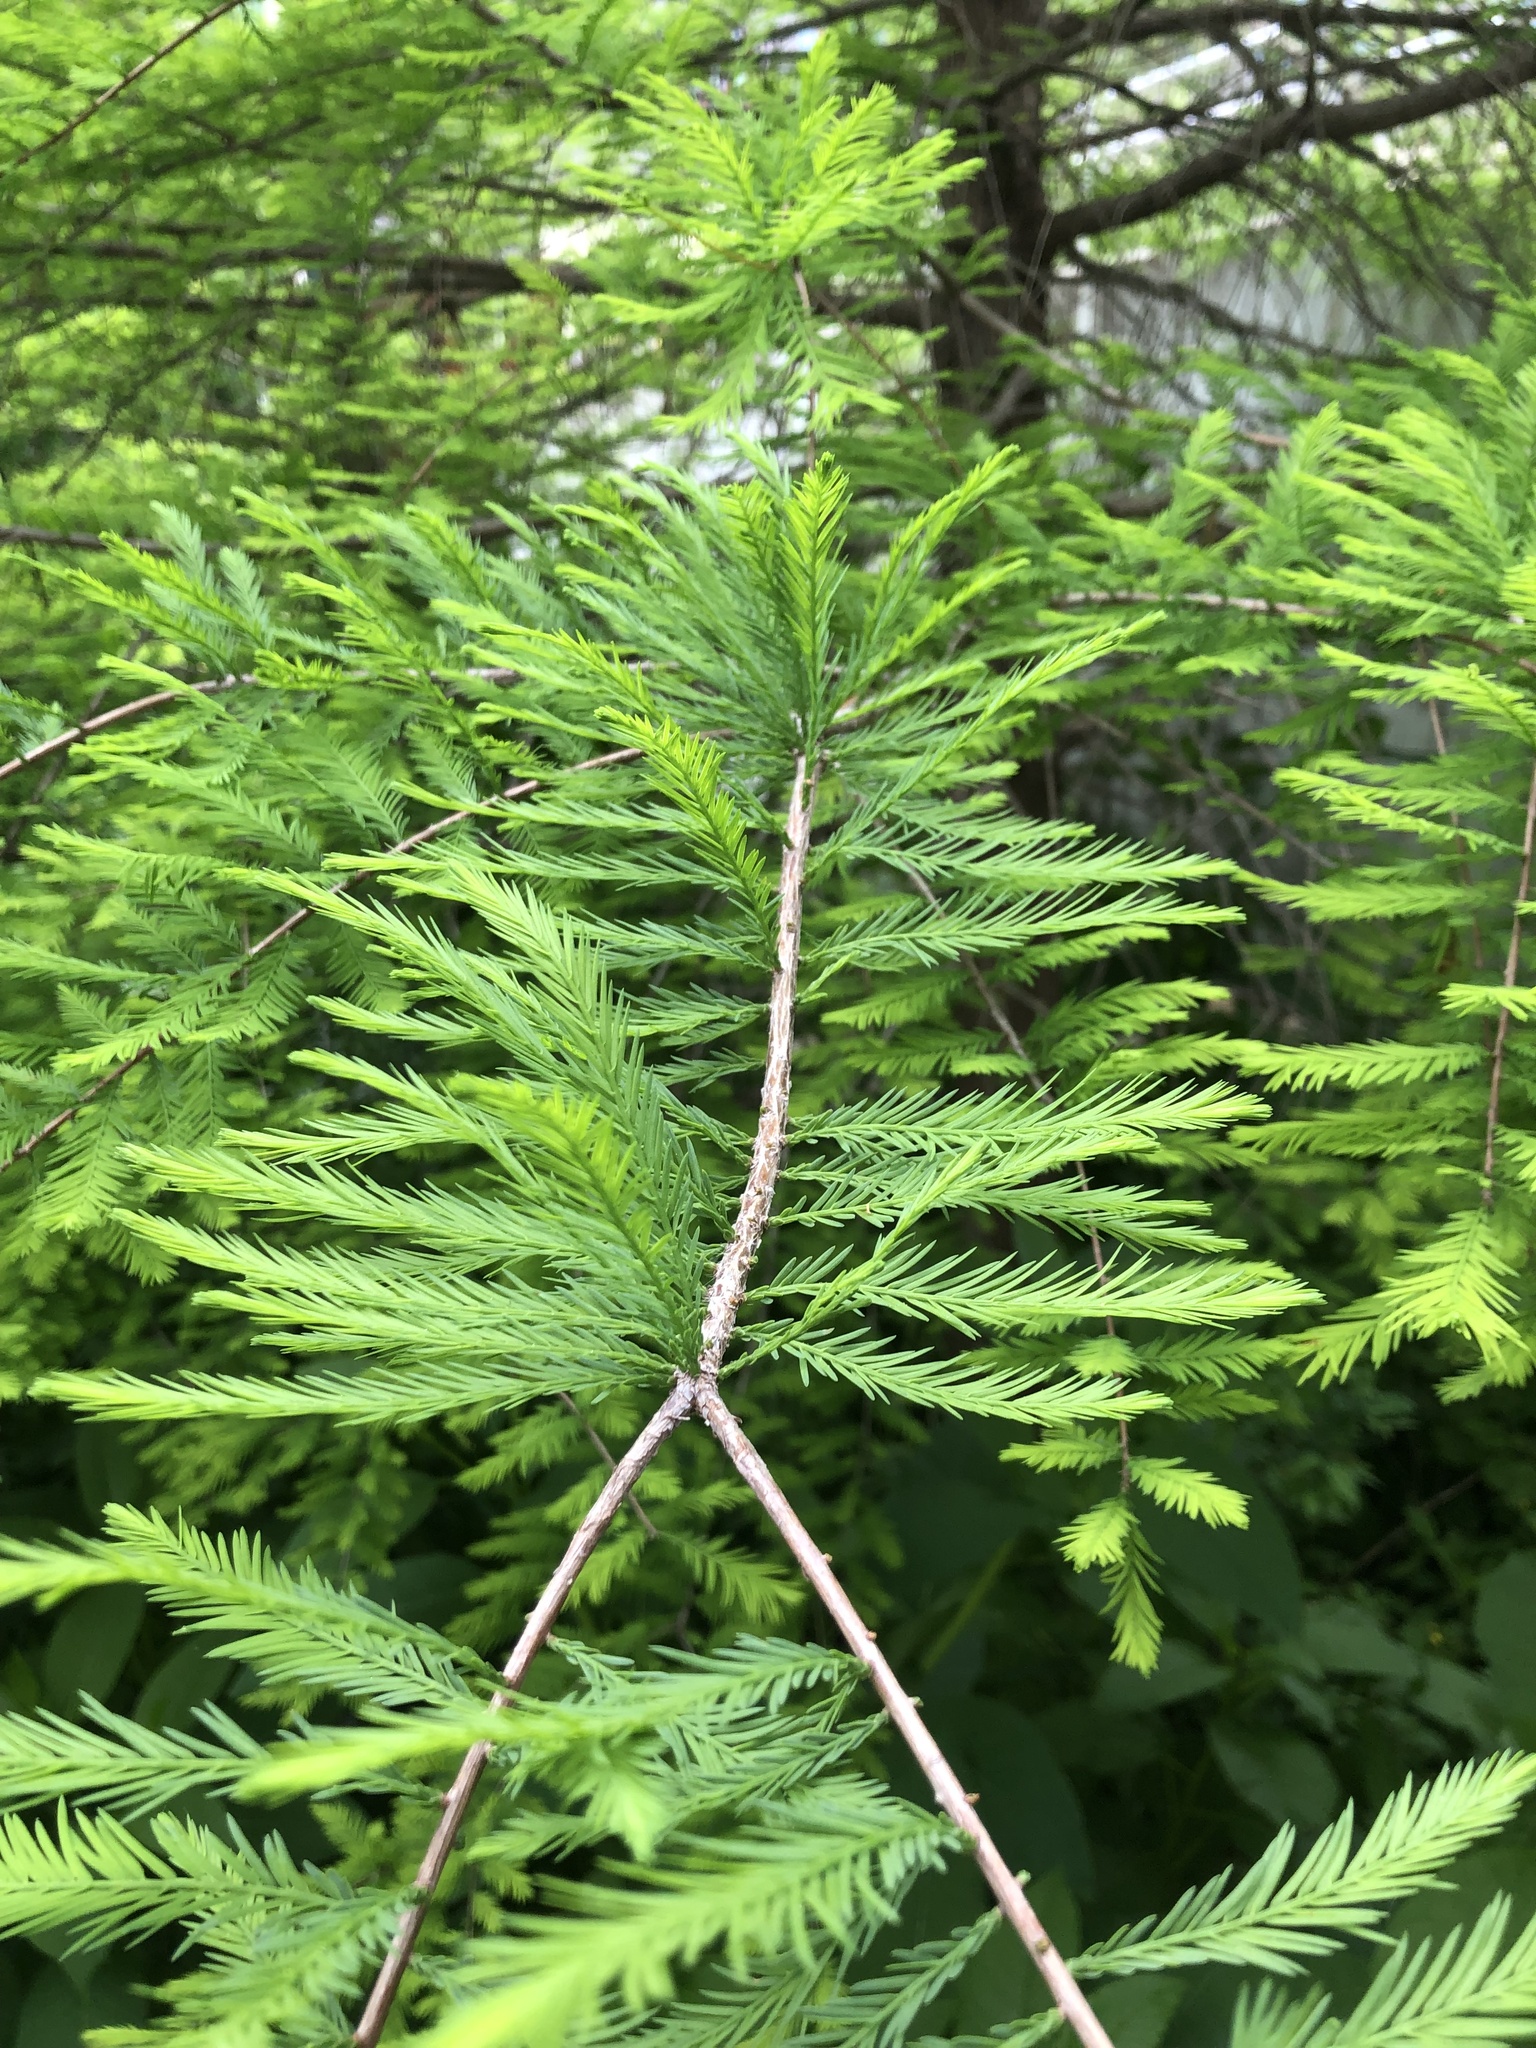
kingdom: Plantae
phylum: Tracheophyta
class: Pinopsida
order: Pinales
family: Cupressaceae
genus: Taxodium
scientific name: Taxodium distichum
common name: Bald cypress
